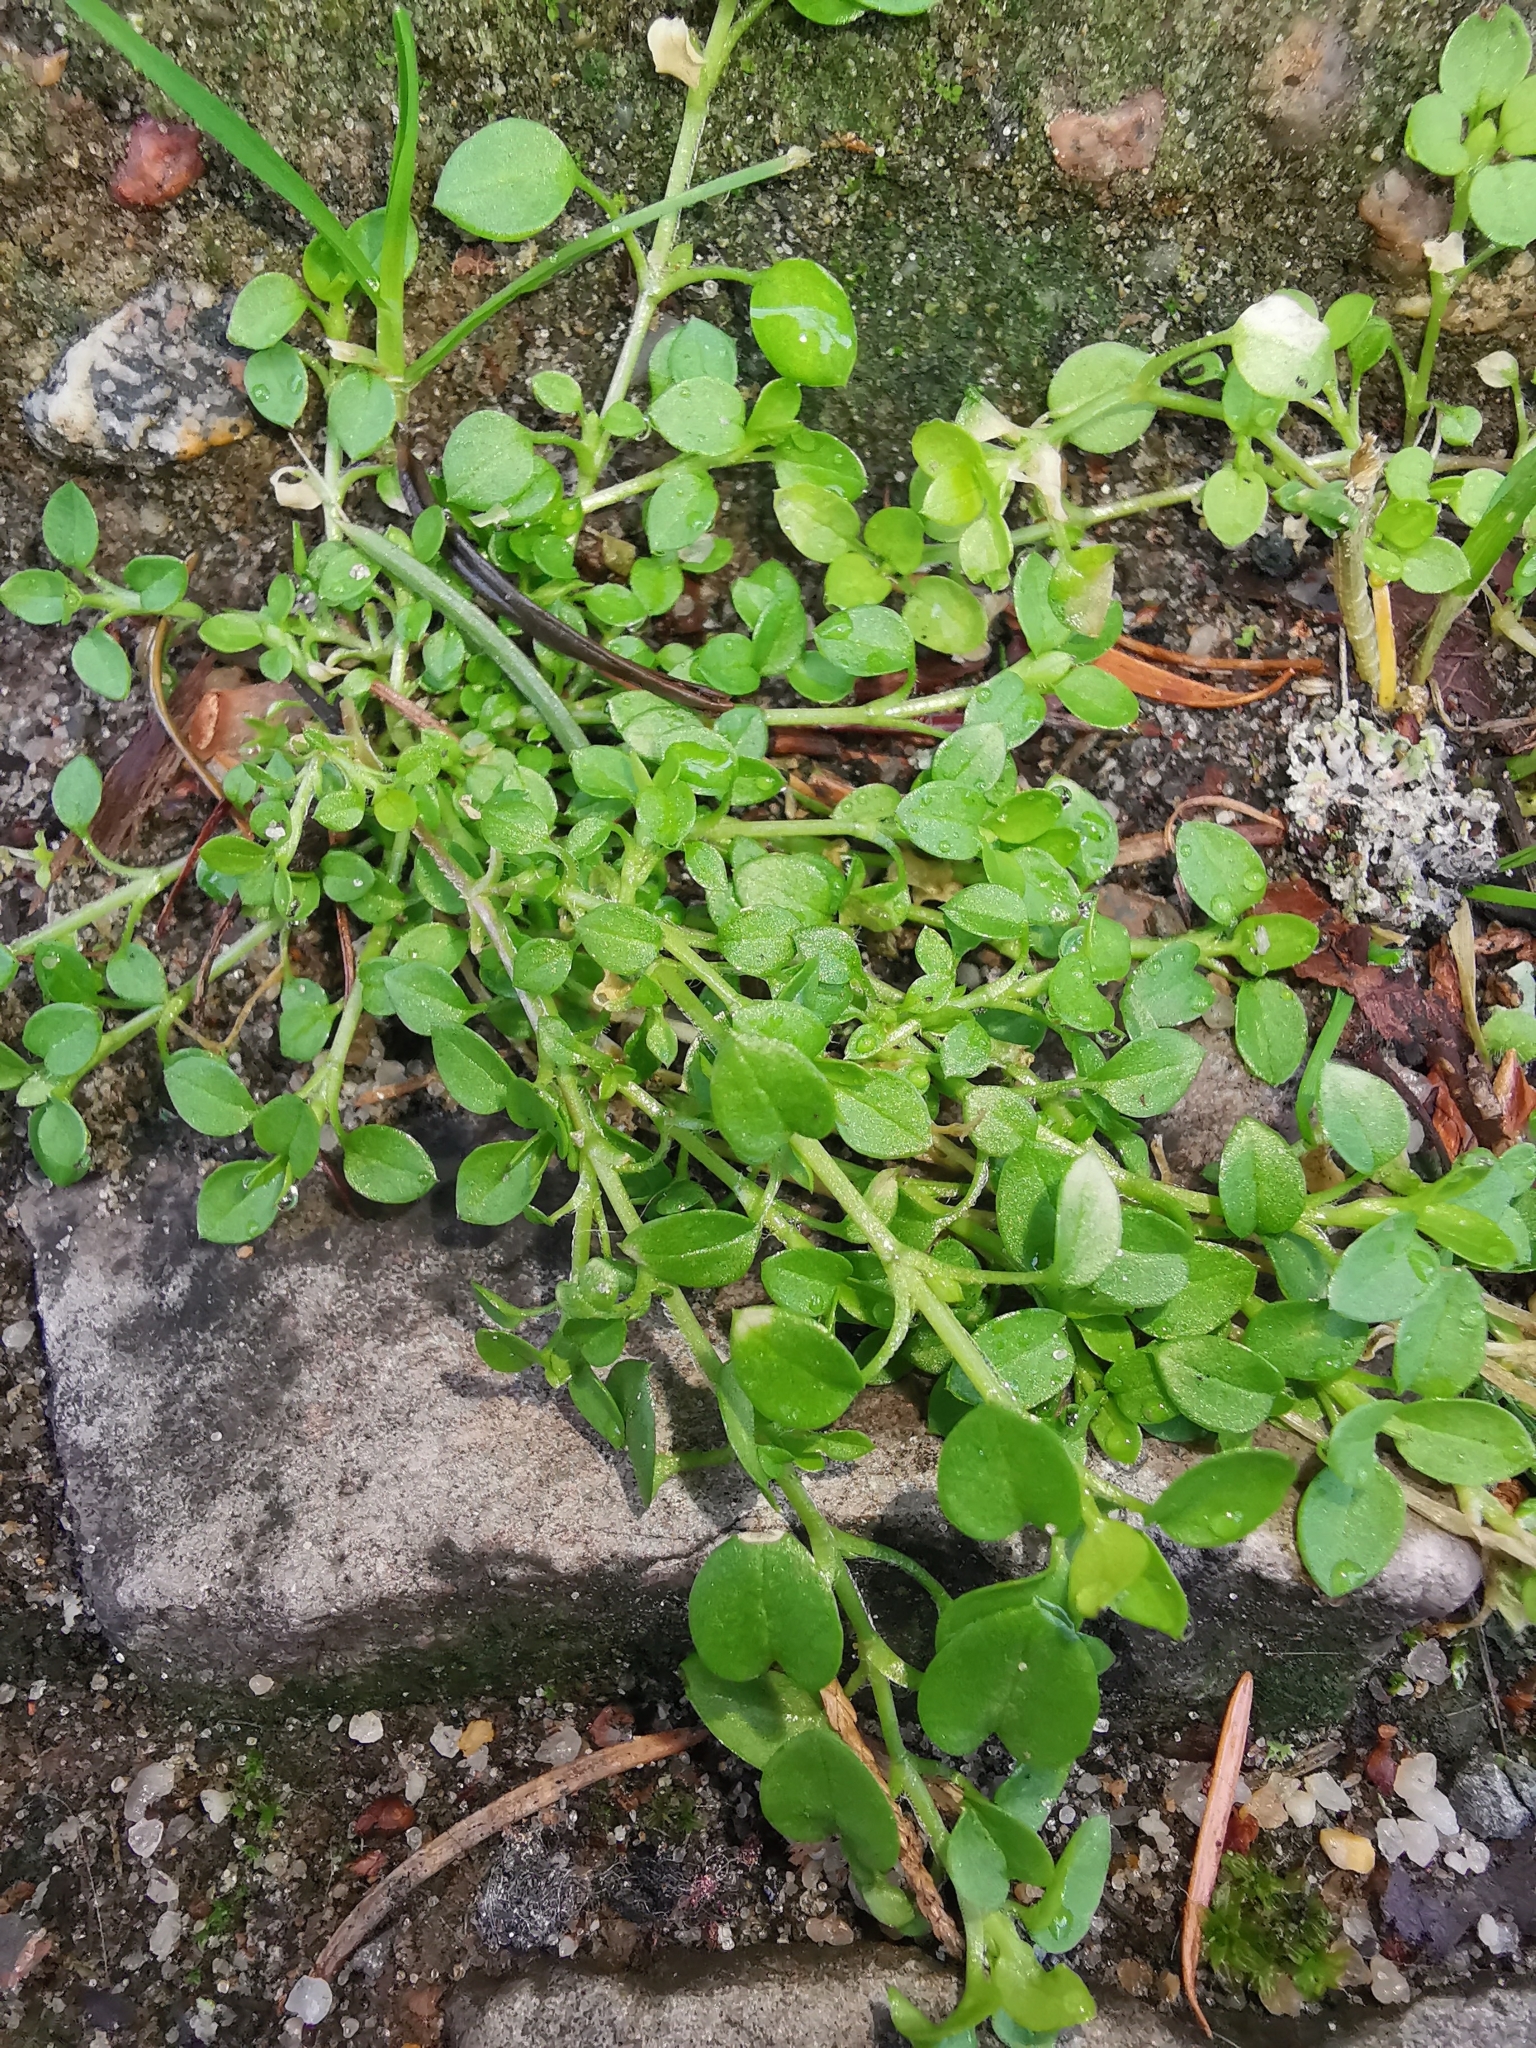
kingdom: Plantae
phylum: Tracheophyta
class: Magnoliopsida
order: Caryophyllales
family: Caryophyllaceae
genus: Stellaria
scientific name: Stellaria media
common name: Common chickweed
